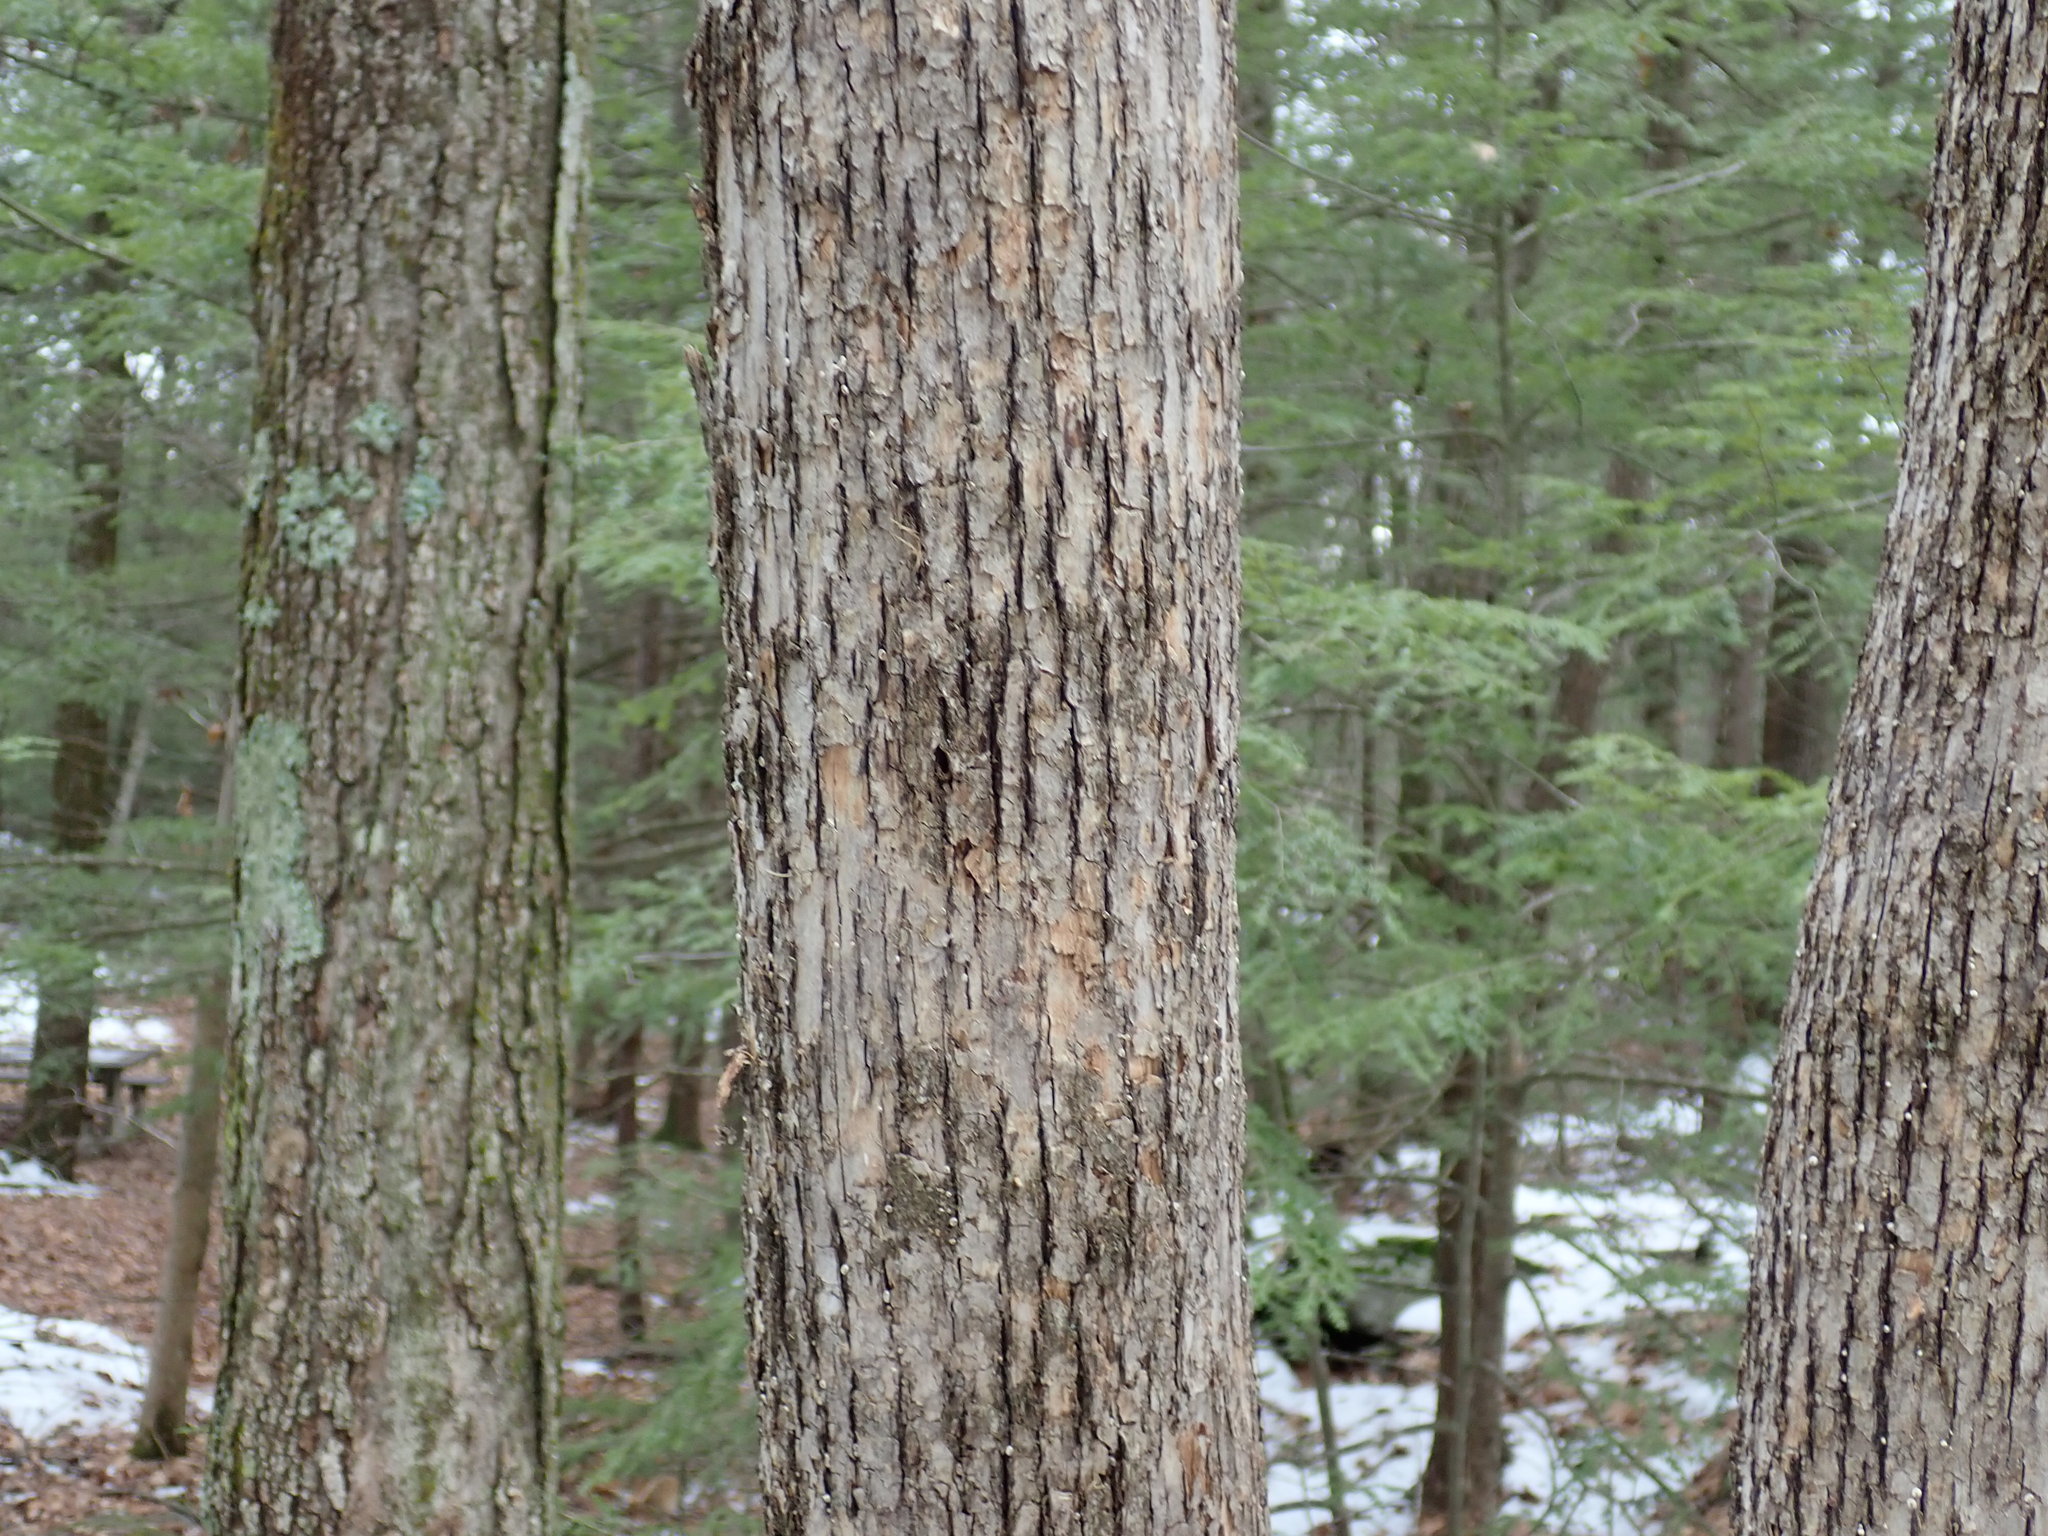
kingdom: Plantae
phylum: Tracheophyta
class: Magnoliopsida
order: Fagales
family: Betulaceae
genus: Ostrya
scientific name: Ostrya virginiana
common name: Ironwood
